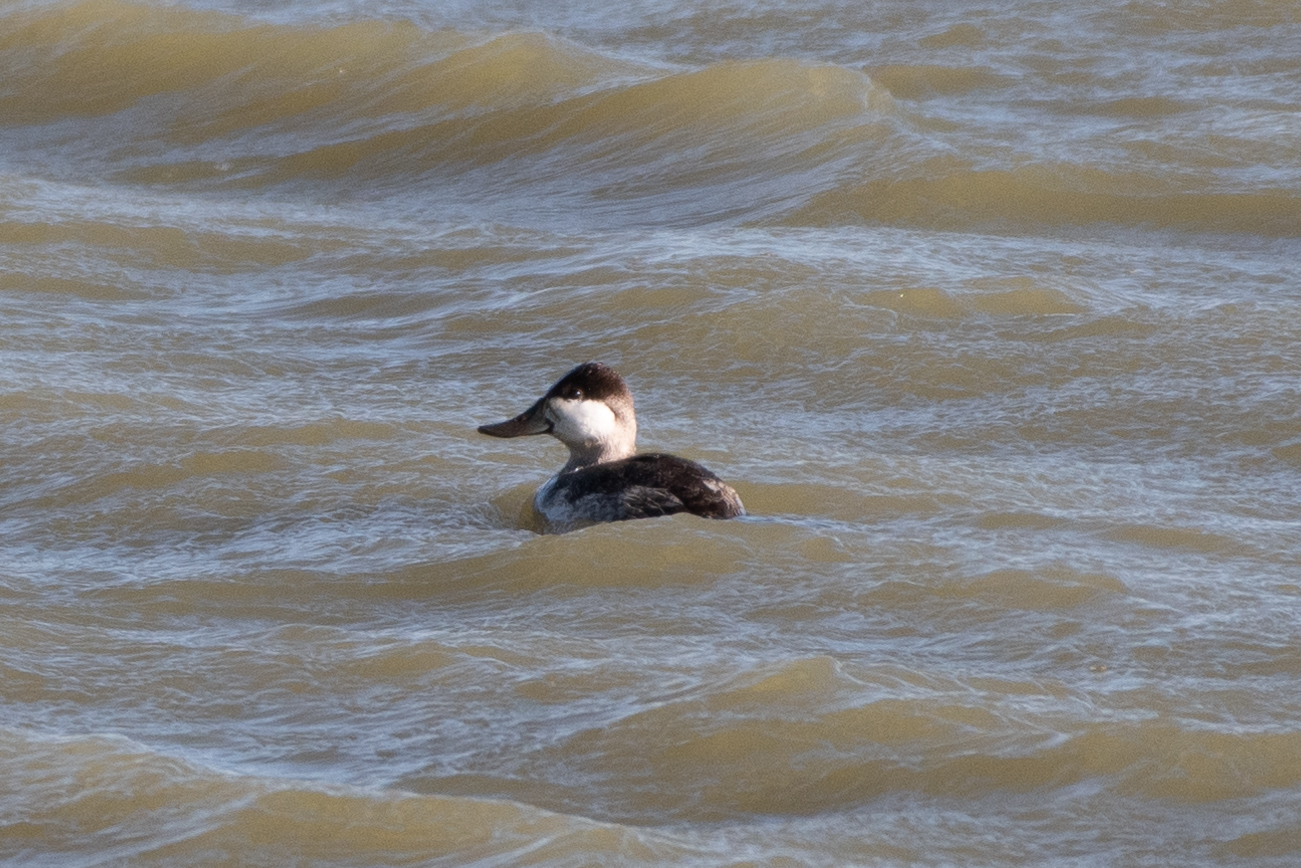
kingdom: Animalia
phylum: Chordata
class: Aves
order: Anseriformes
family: Anatidae
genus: Oxyura
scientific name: Oxyura jamaicensis
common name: Ruddy duck
